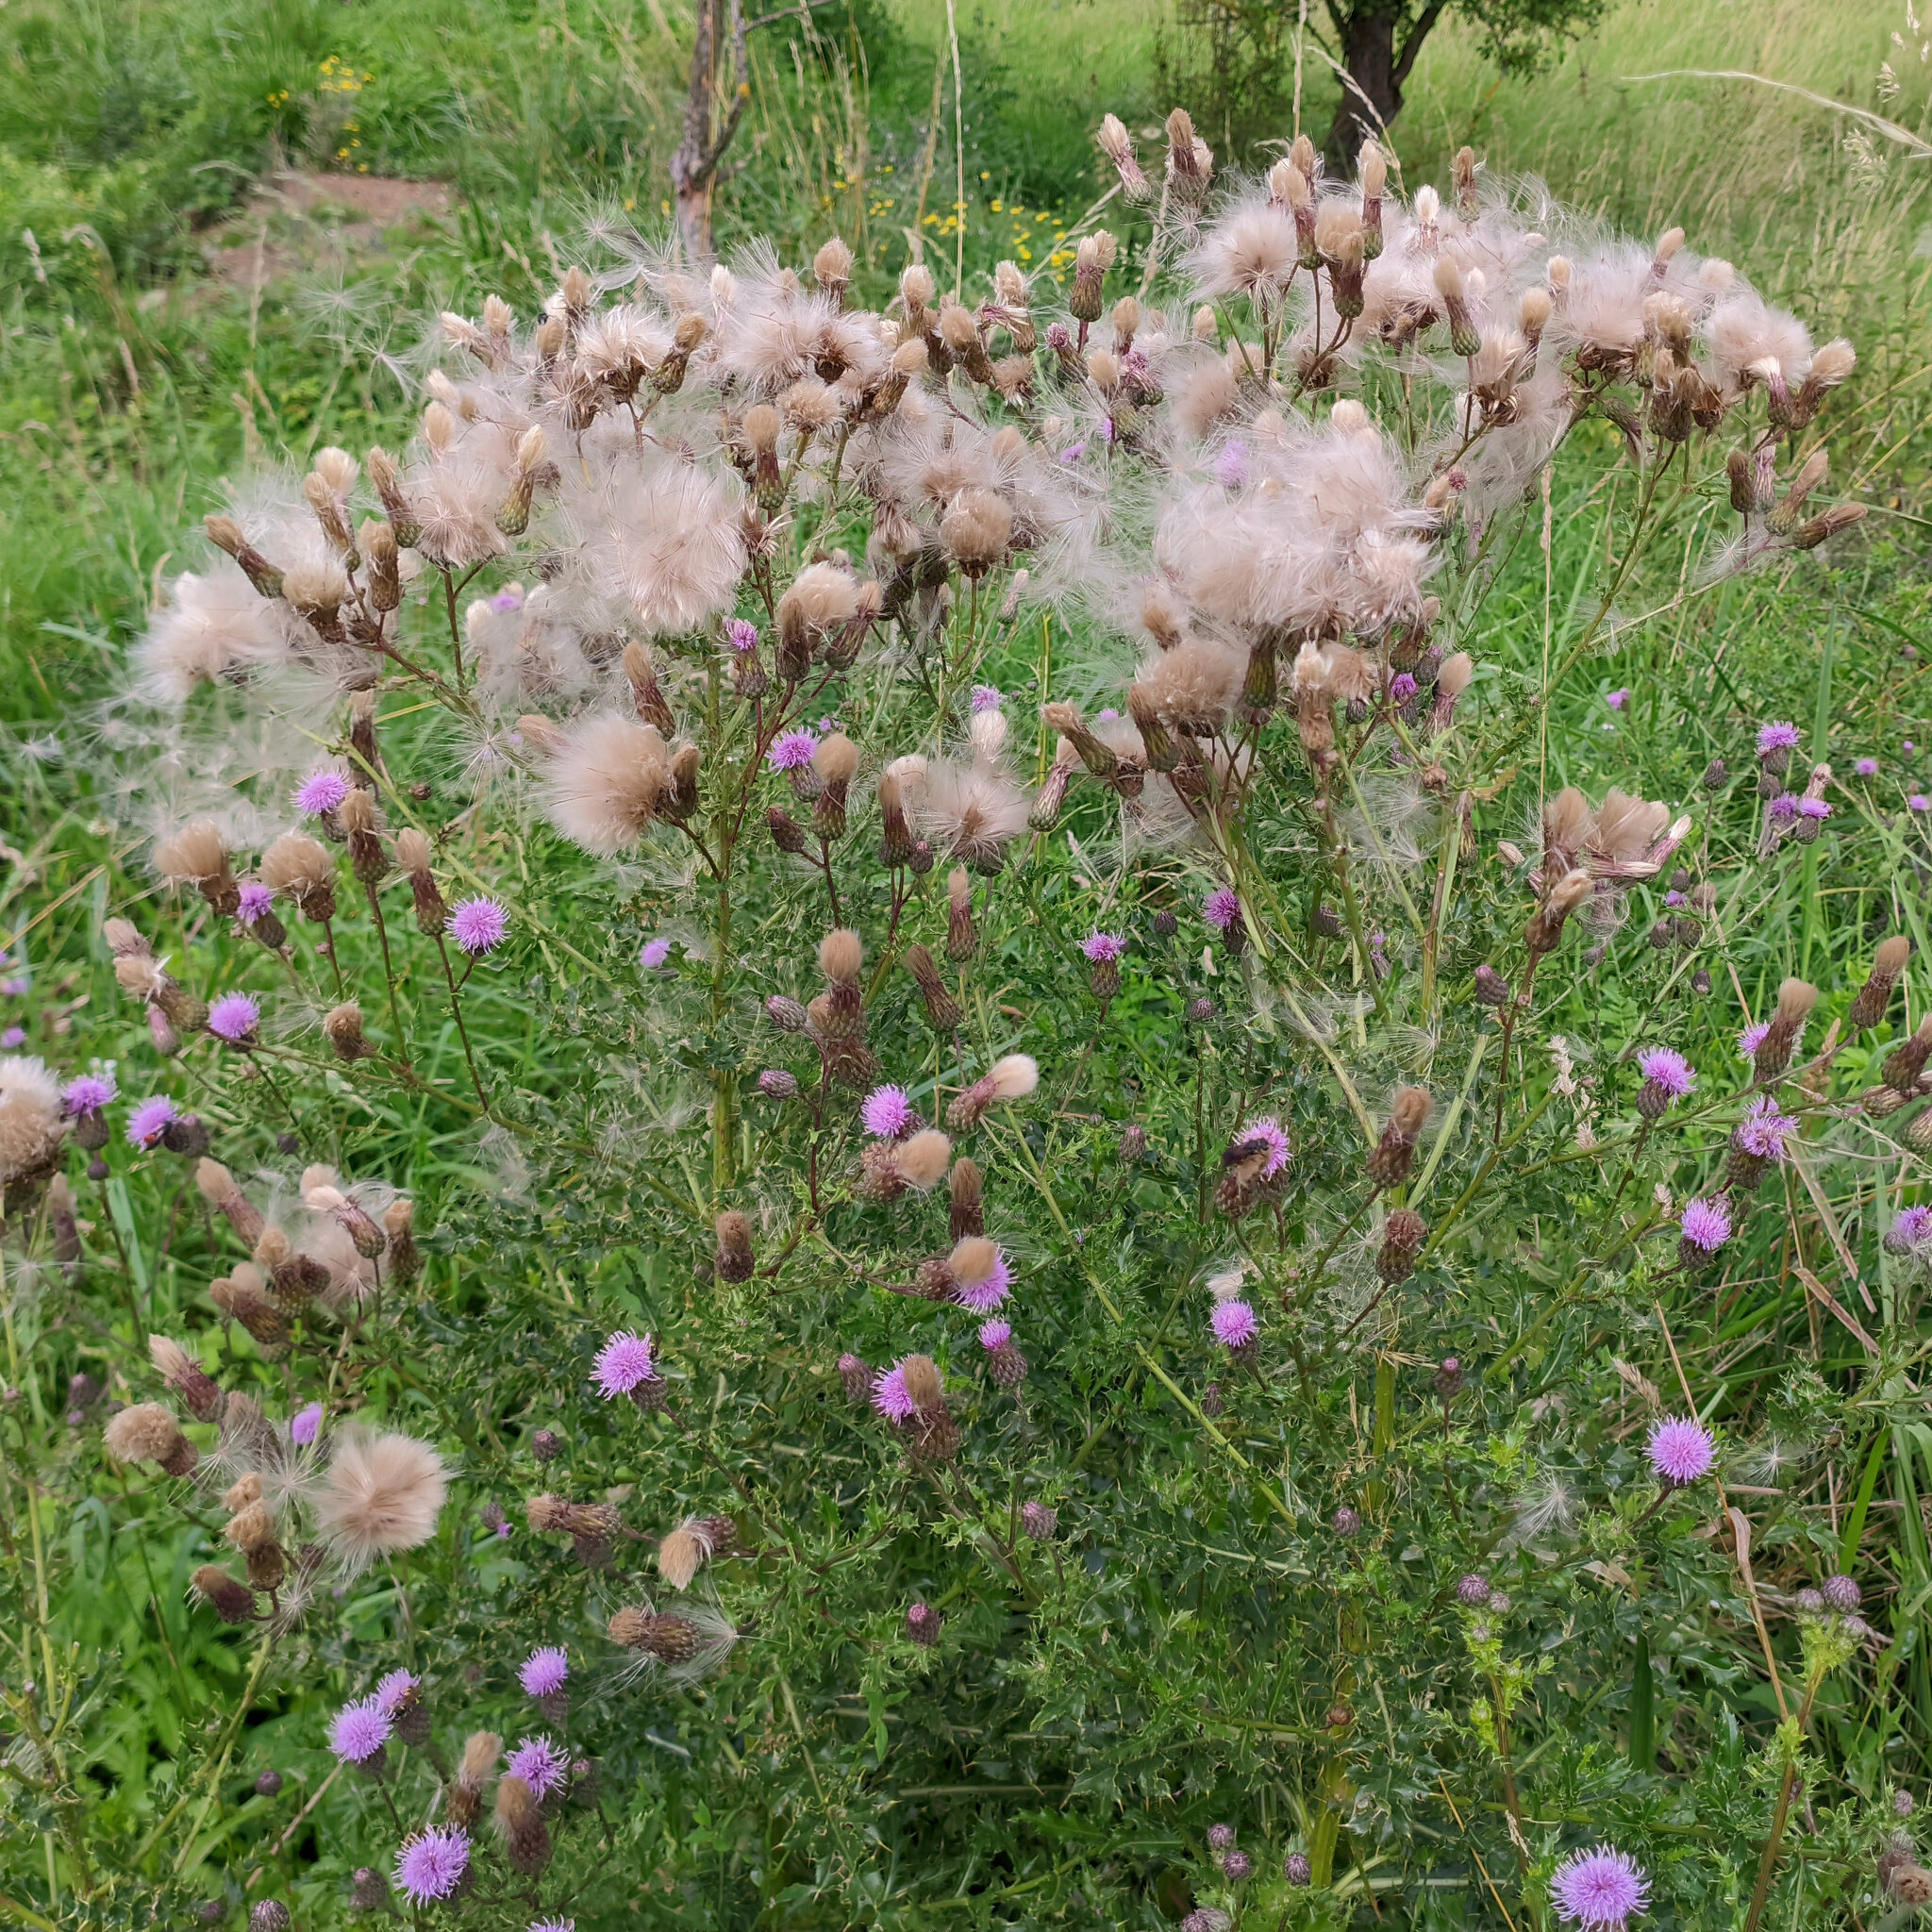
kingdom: Plantae
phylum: Tracheophyta
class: Magnoliopsida
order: Asterales
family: Asteraceae
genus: Cirsium
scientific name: Cirsium arvense
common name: Creeping thistle
